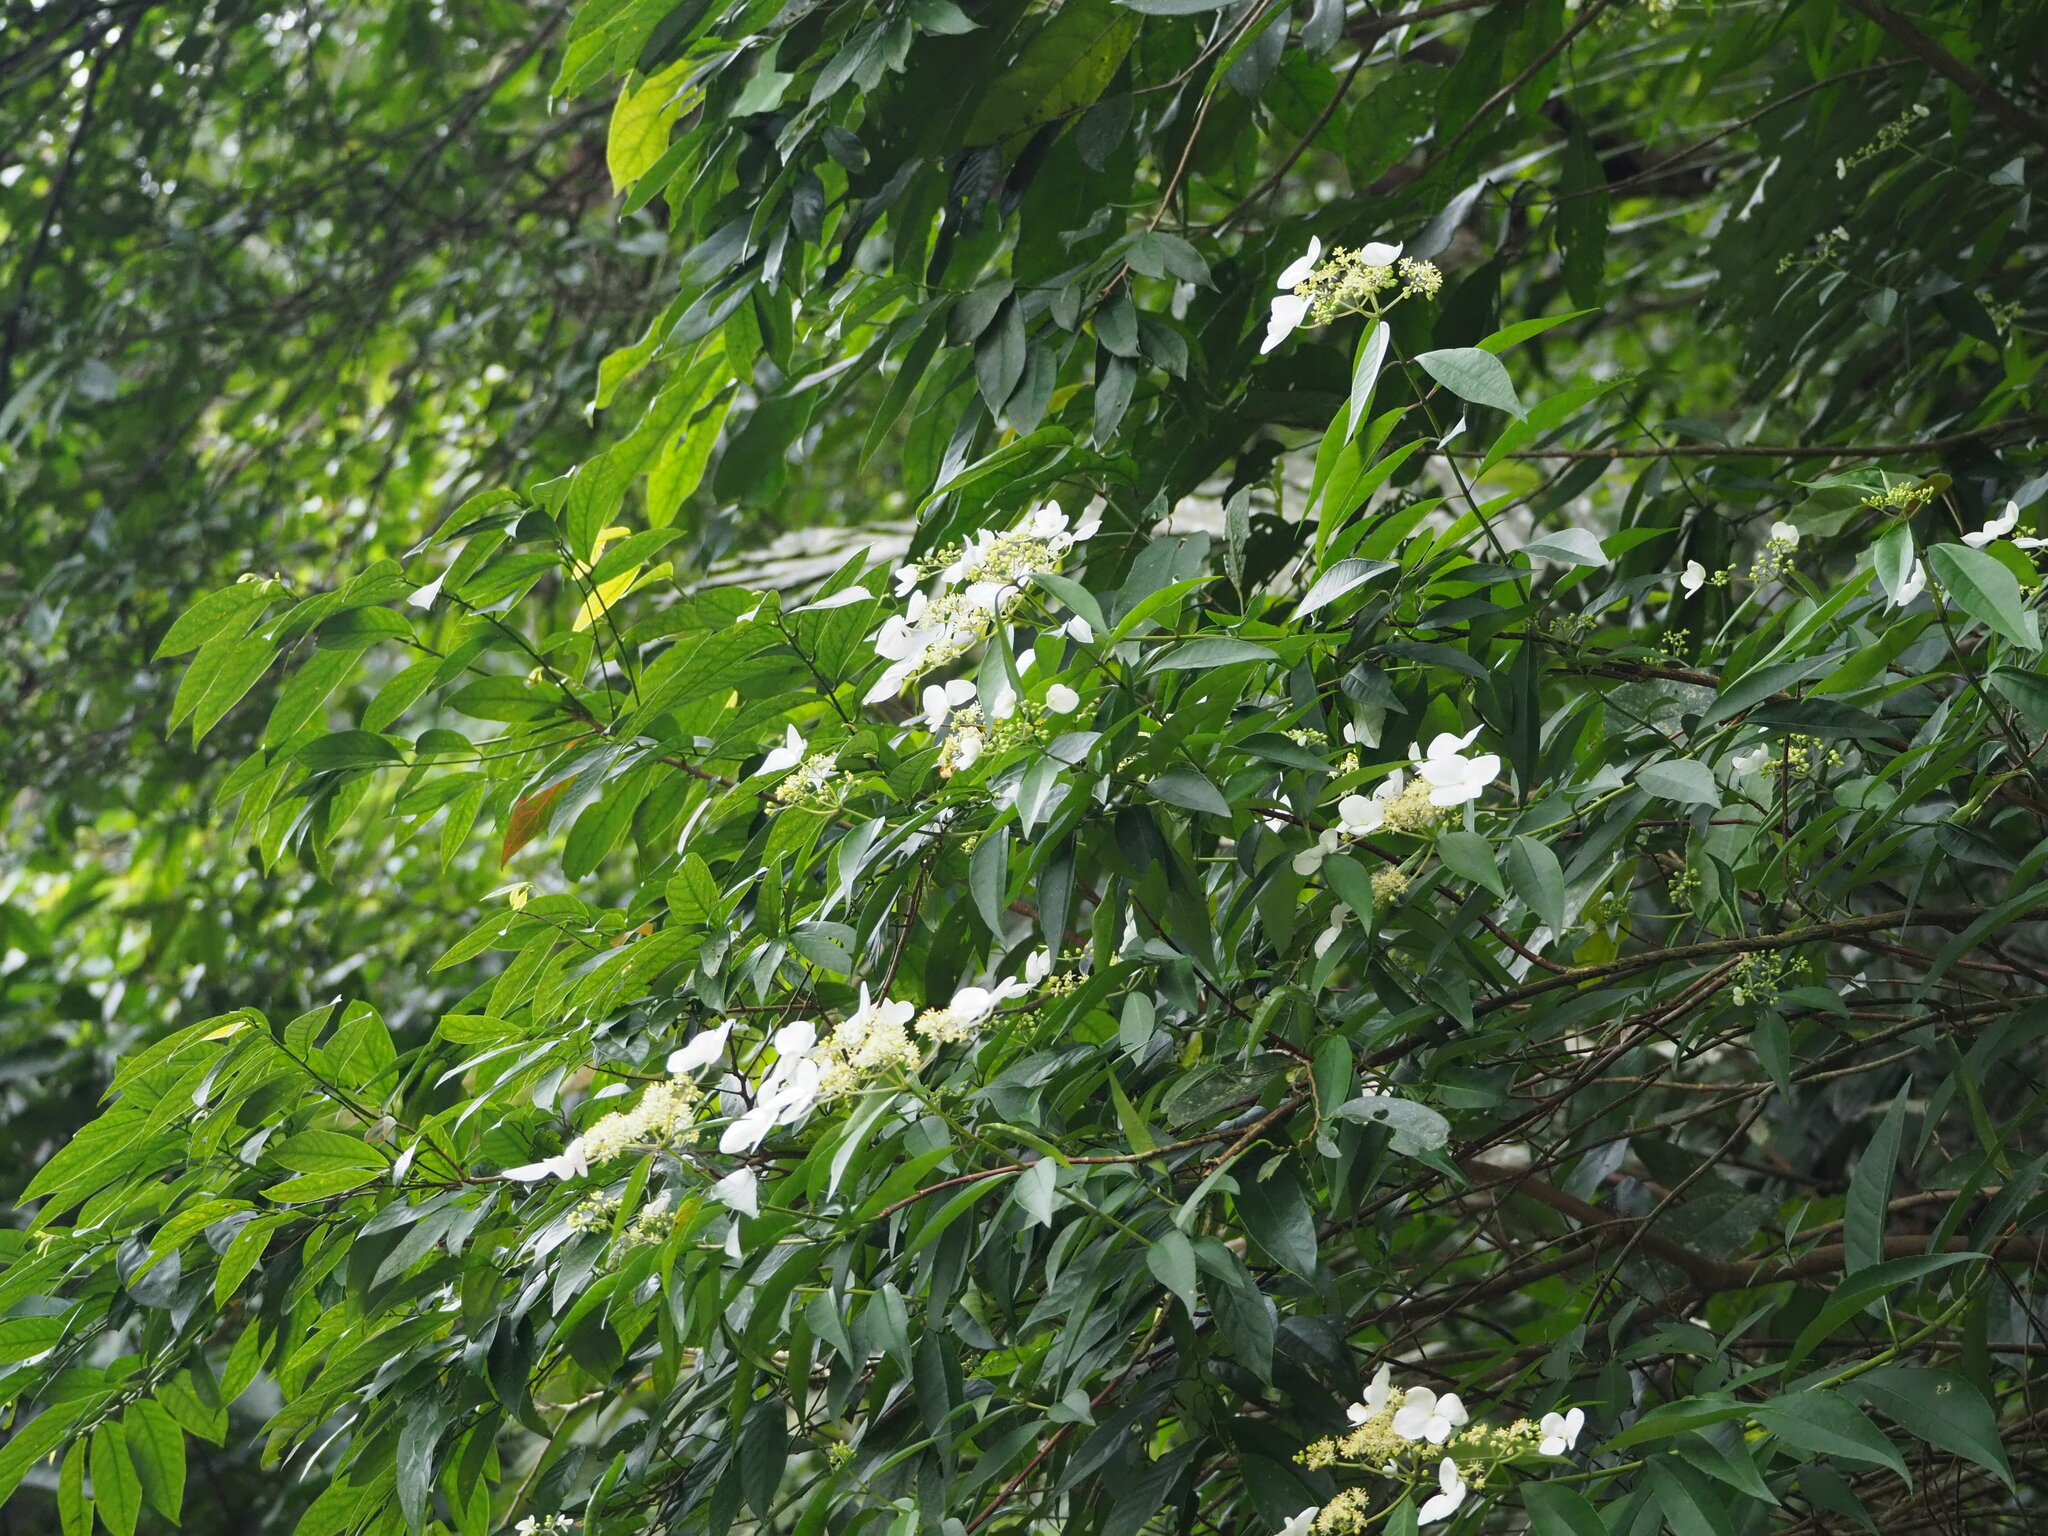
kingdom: Plantae
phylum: Tracheophyta
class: Magnoliopsida
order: Cornales
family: Hydrangeaceae
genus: Hydrangea
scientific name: Hydrangea chinensis
